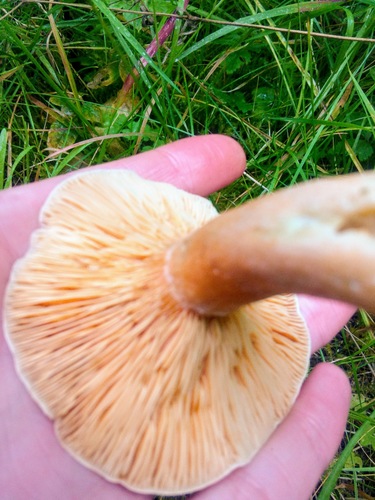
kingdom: Fungi
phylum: Basidiomycota
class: Agaricomycetes
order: Russulales
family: Russulaceae
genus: Lactarius
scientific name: Lactarius deterrimus
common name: False saffron milkcap
